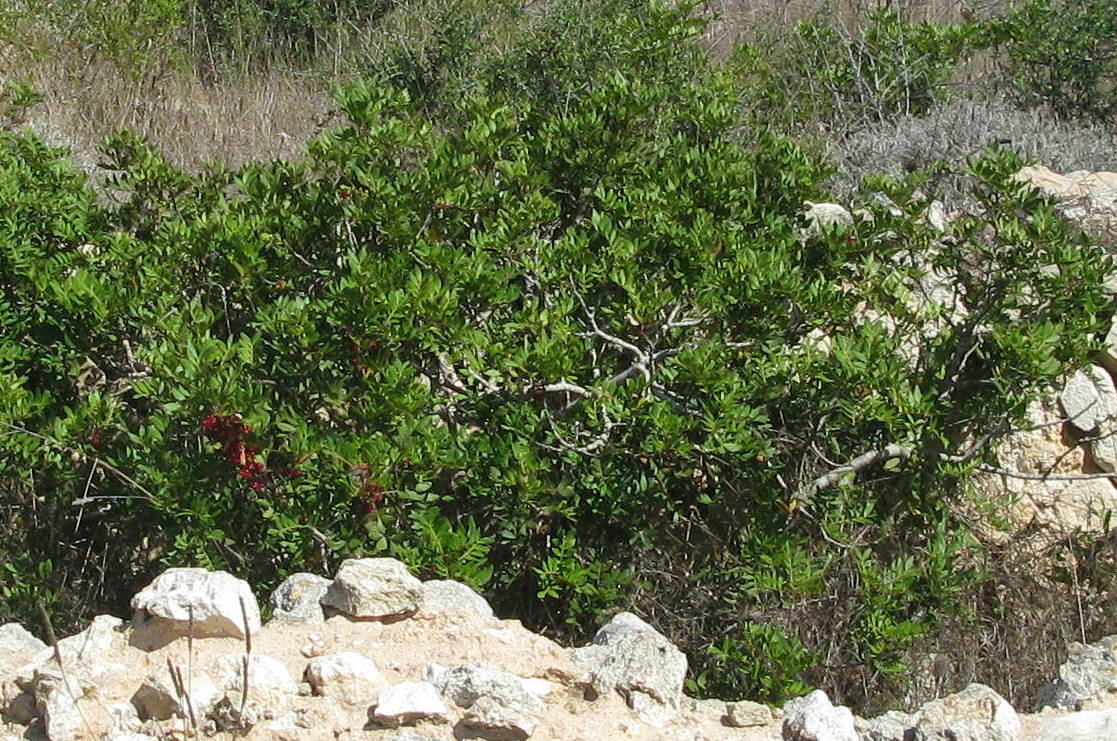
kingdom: Plantae
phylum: Tracheophyta
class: Magnoliopsida
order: Sapindales
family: Anacardiaceae
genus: Pistacia
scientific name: Pistacia lentiscus
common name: Lentisk
